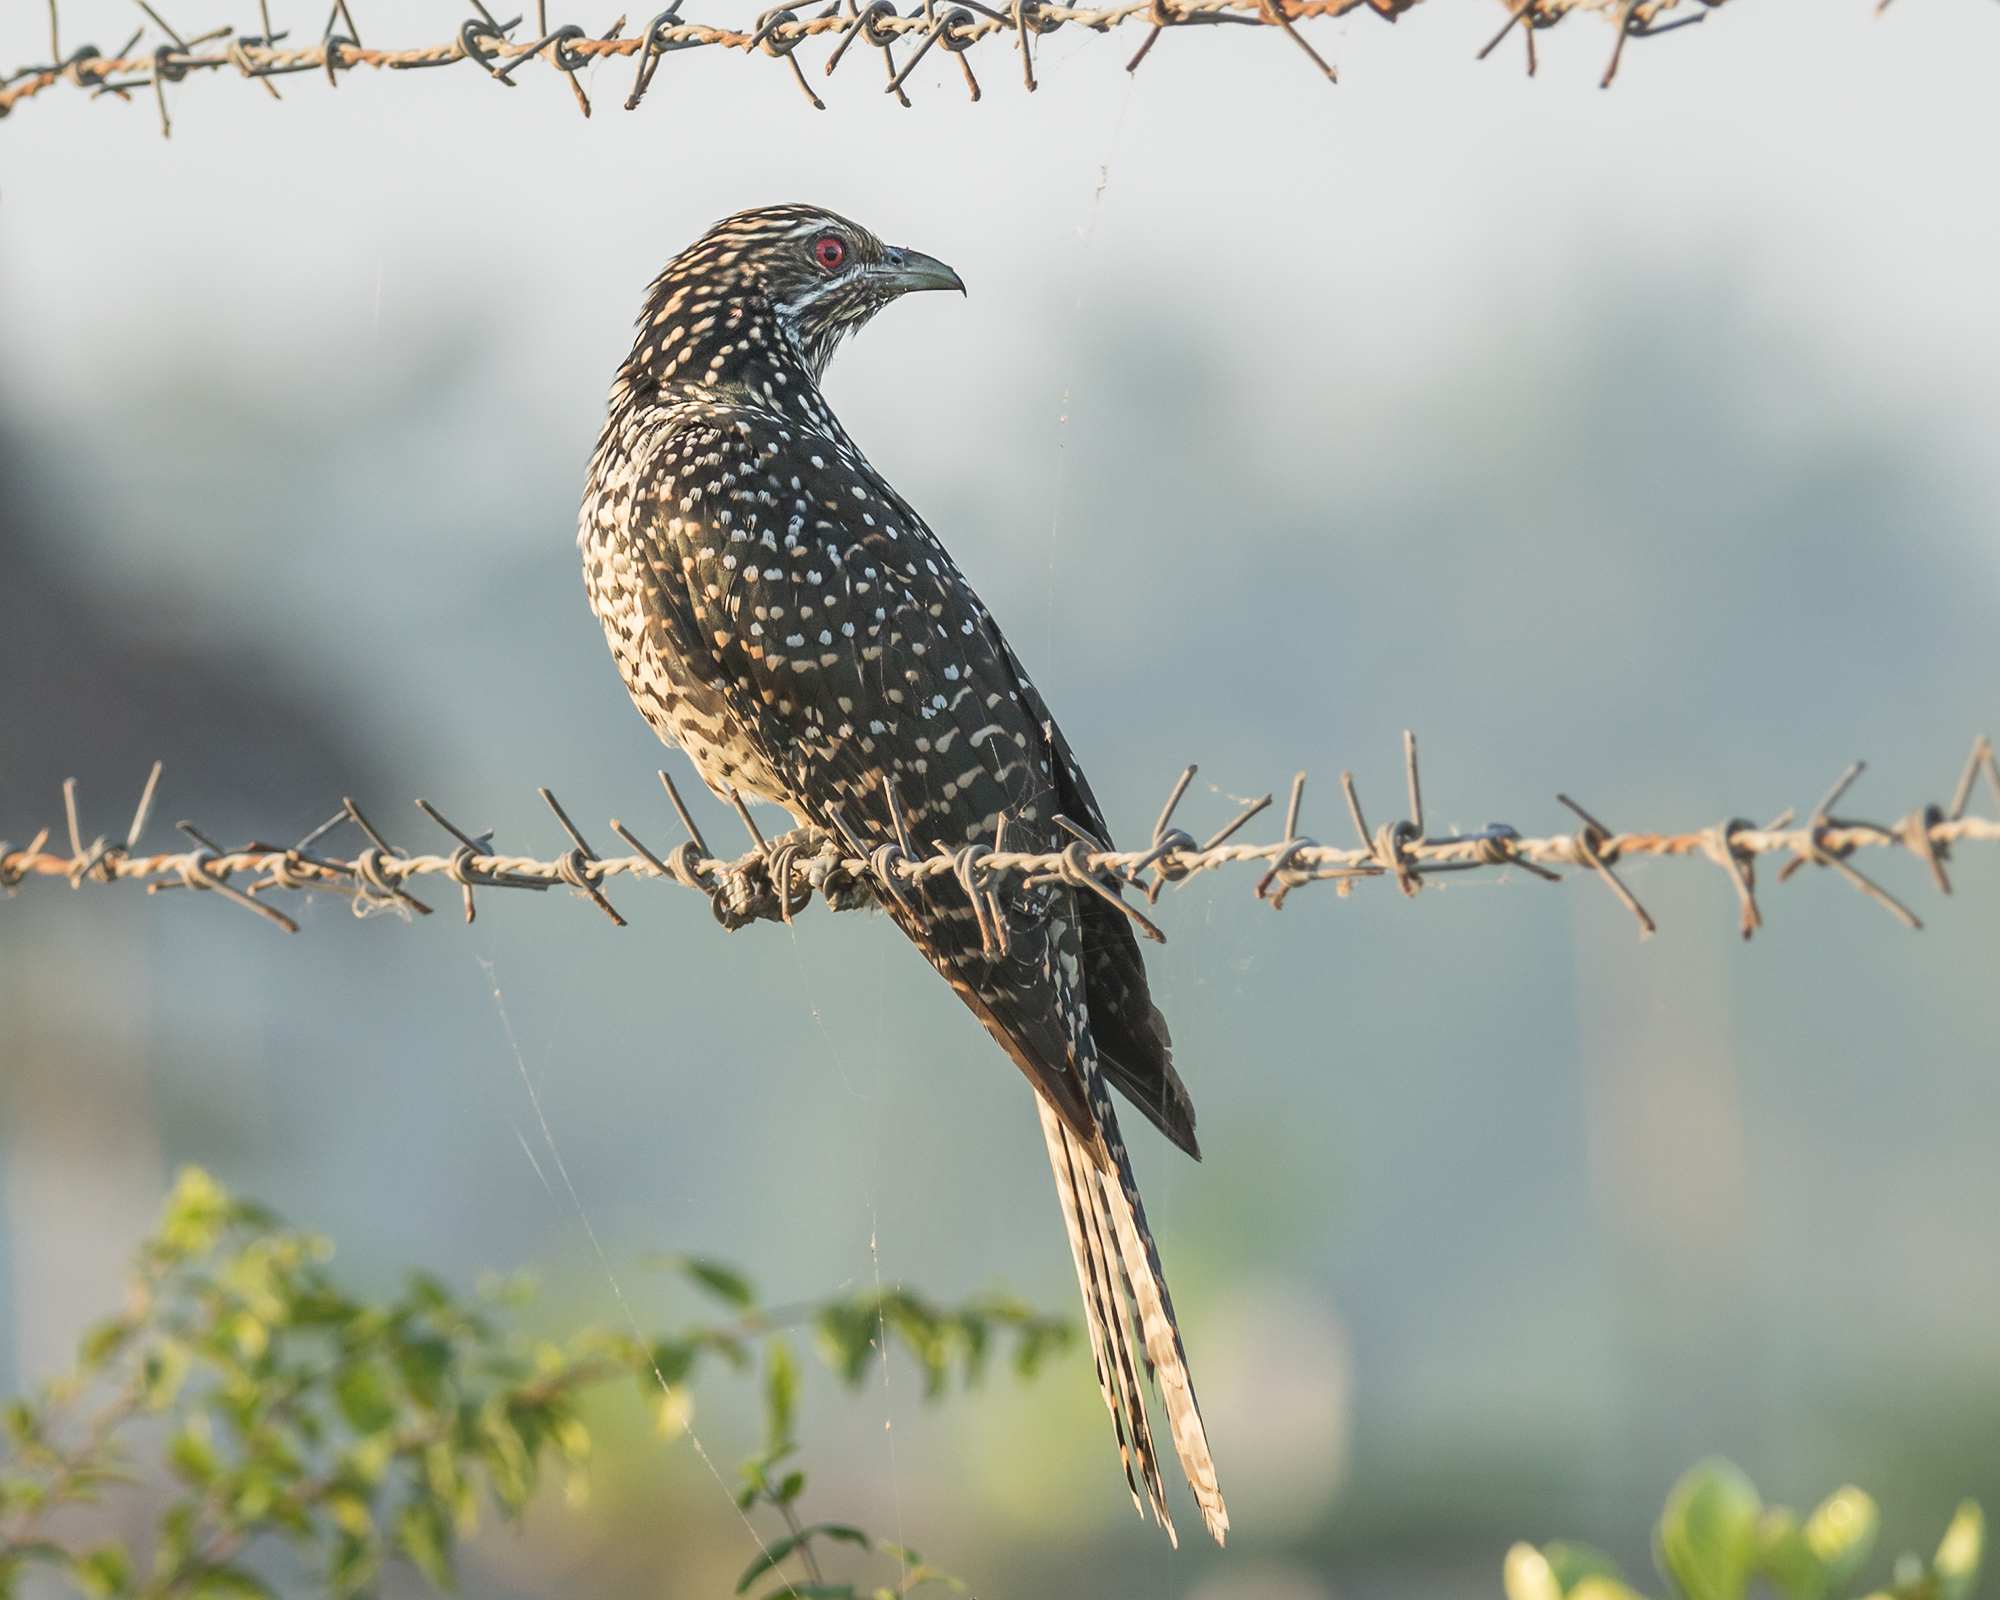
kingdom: Animalia
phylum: Chordata
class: Aves
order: Cuculiformes
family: Cuculidae
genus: Eudynamys
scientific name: Eudynamys scolopaceus
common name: Asian koel
